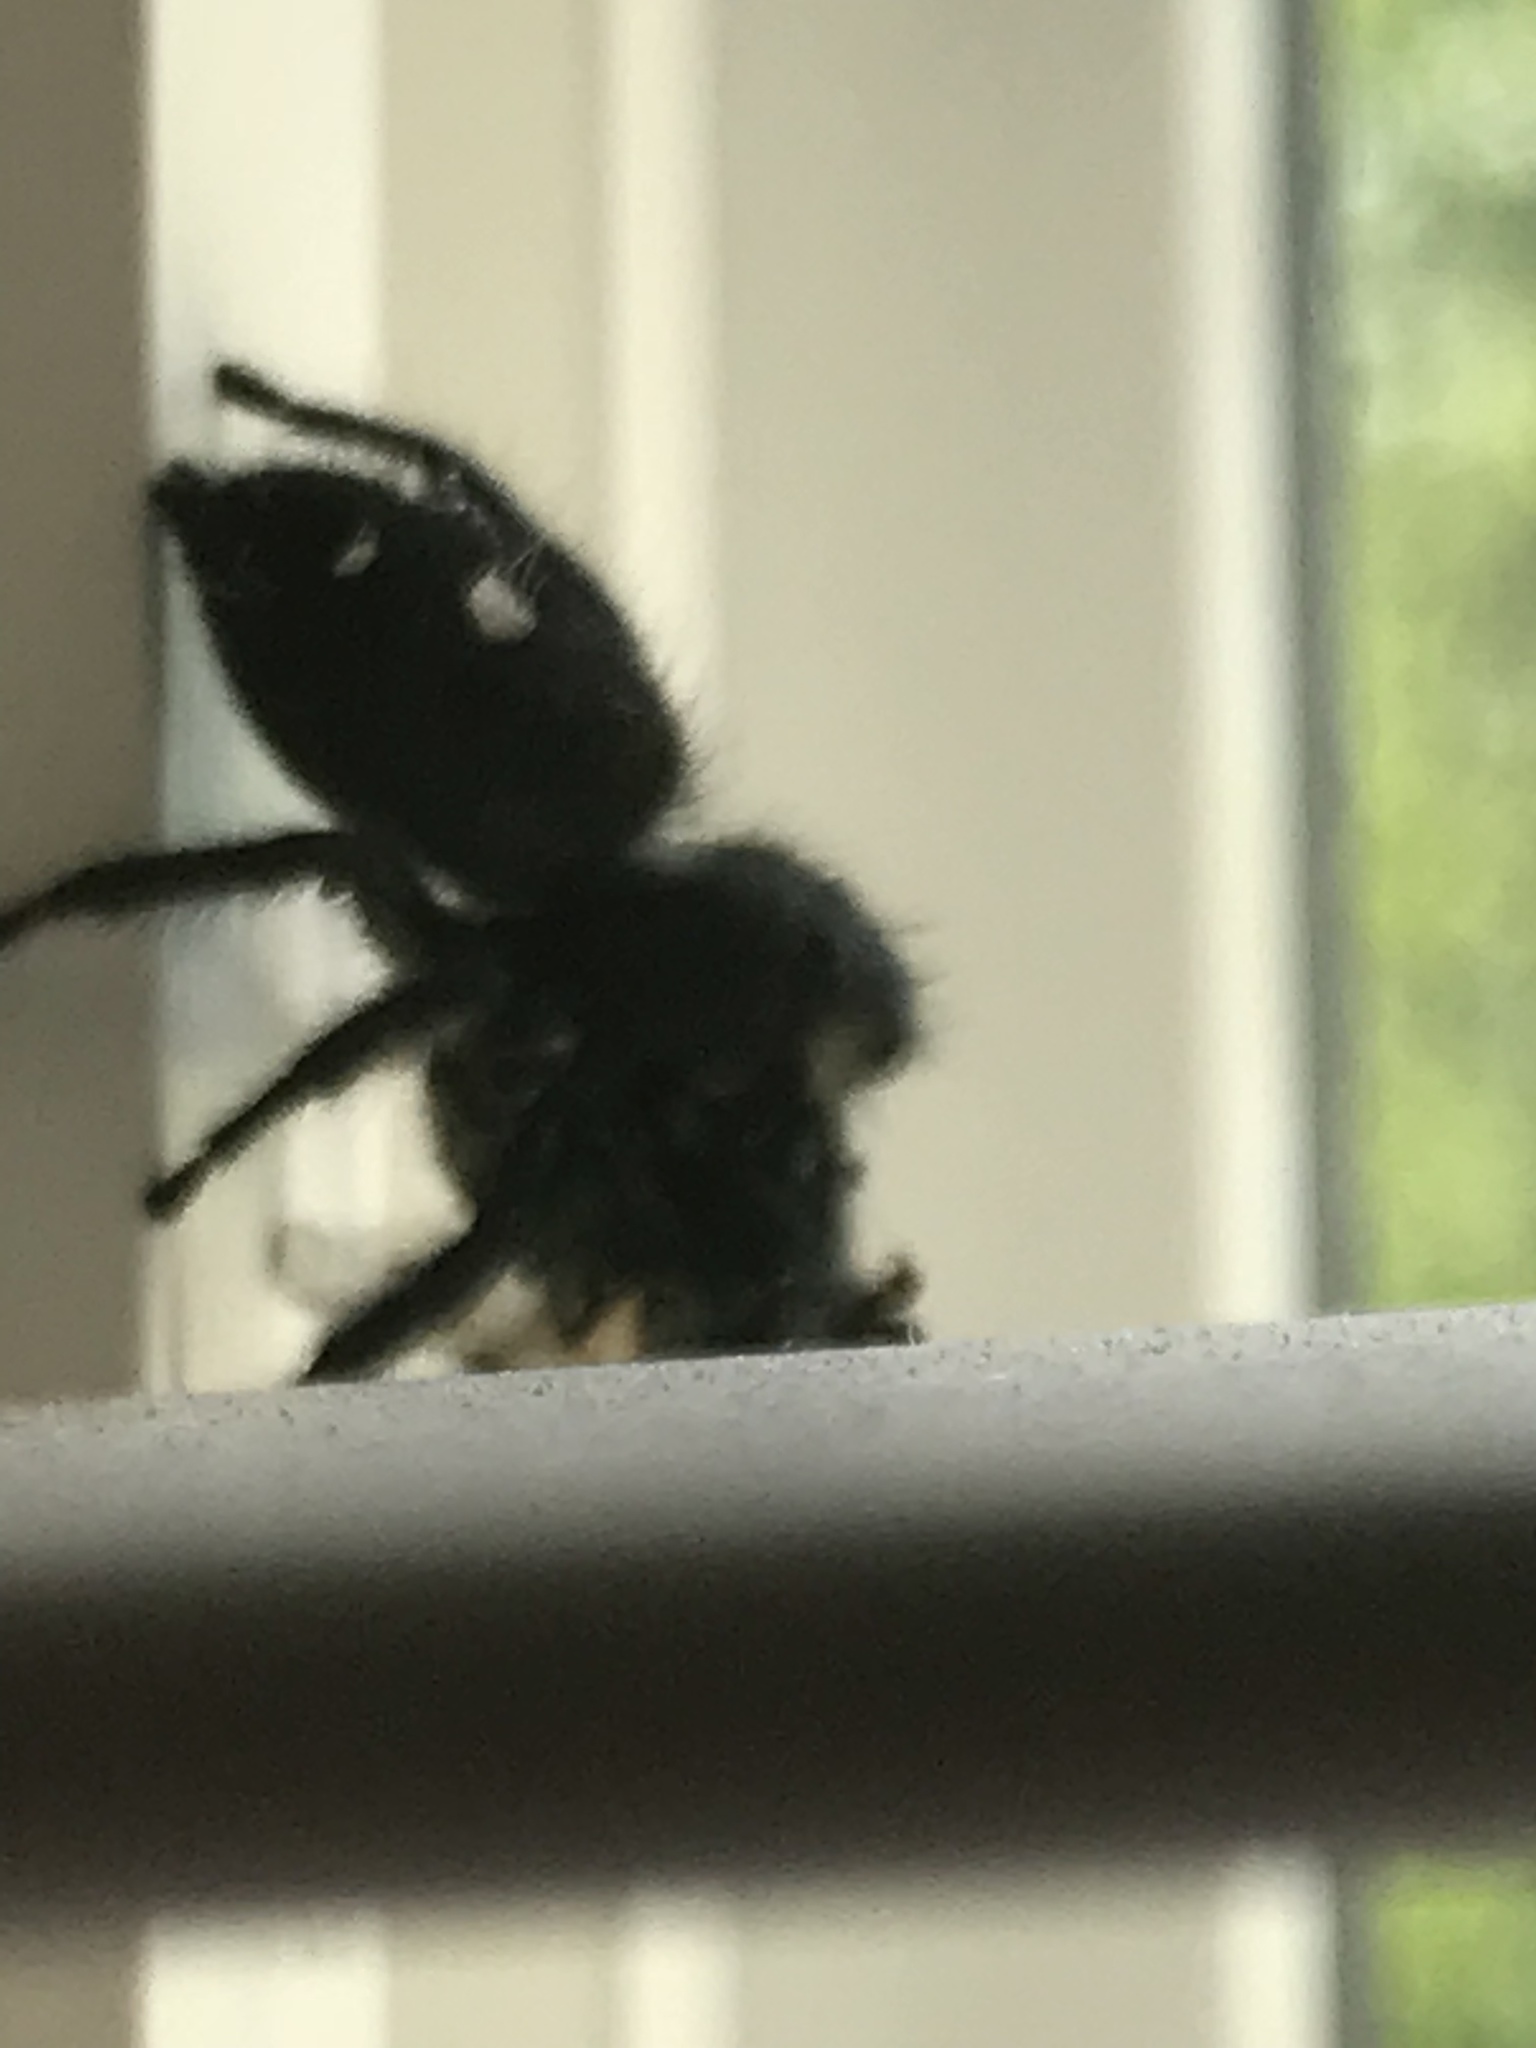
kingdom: Animalia
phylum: Arthropoda
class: Arachnida
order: Araneae
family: Salticidae
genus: Phidippus
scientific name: Phidippus audax
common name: Bold jumper
